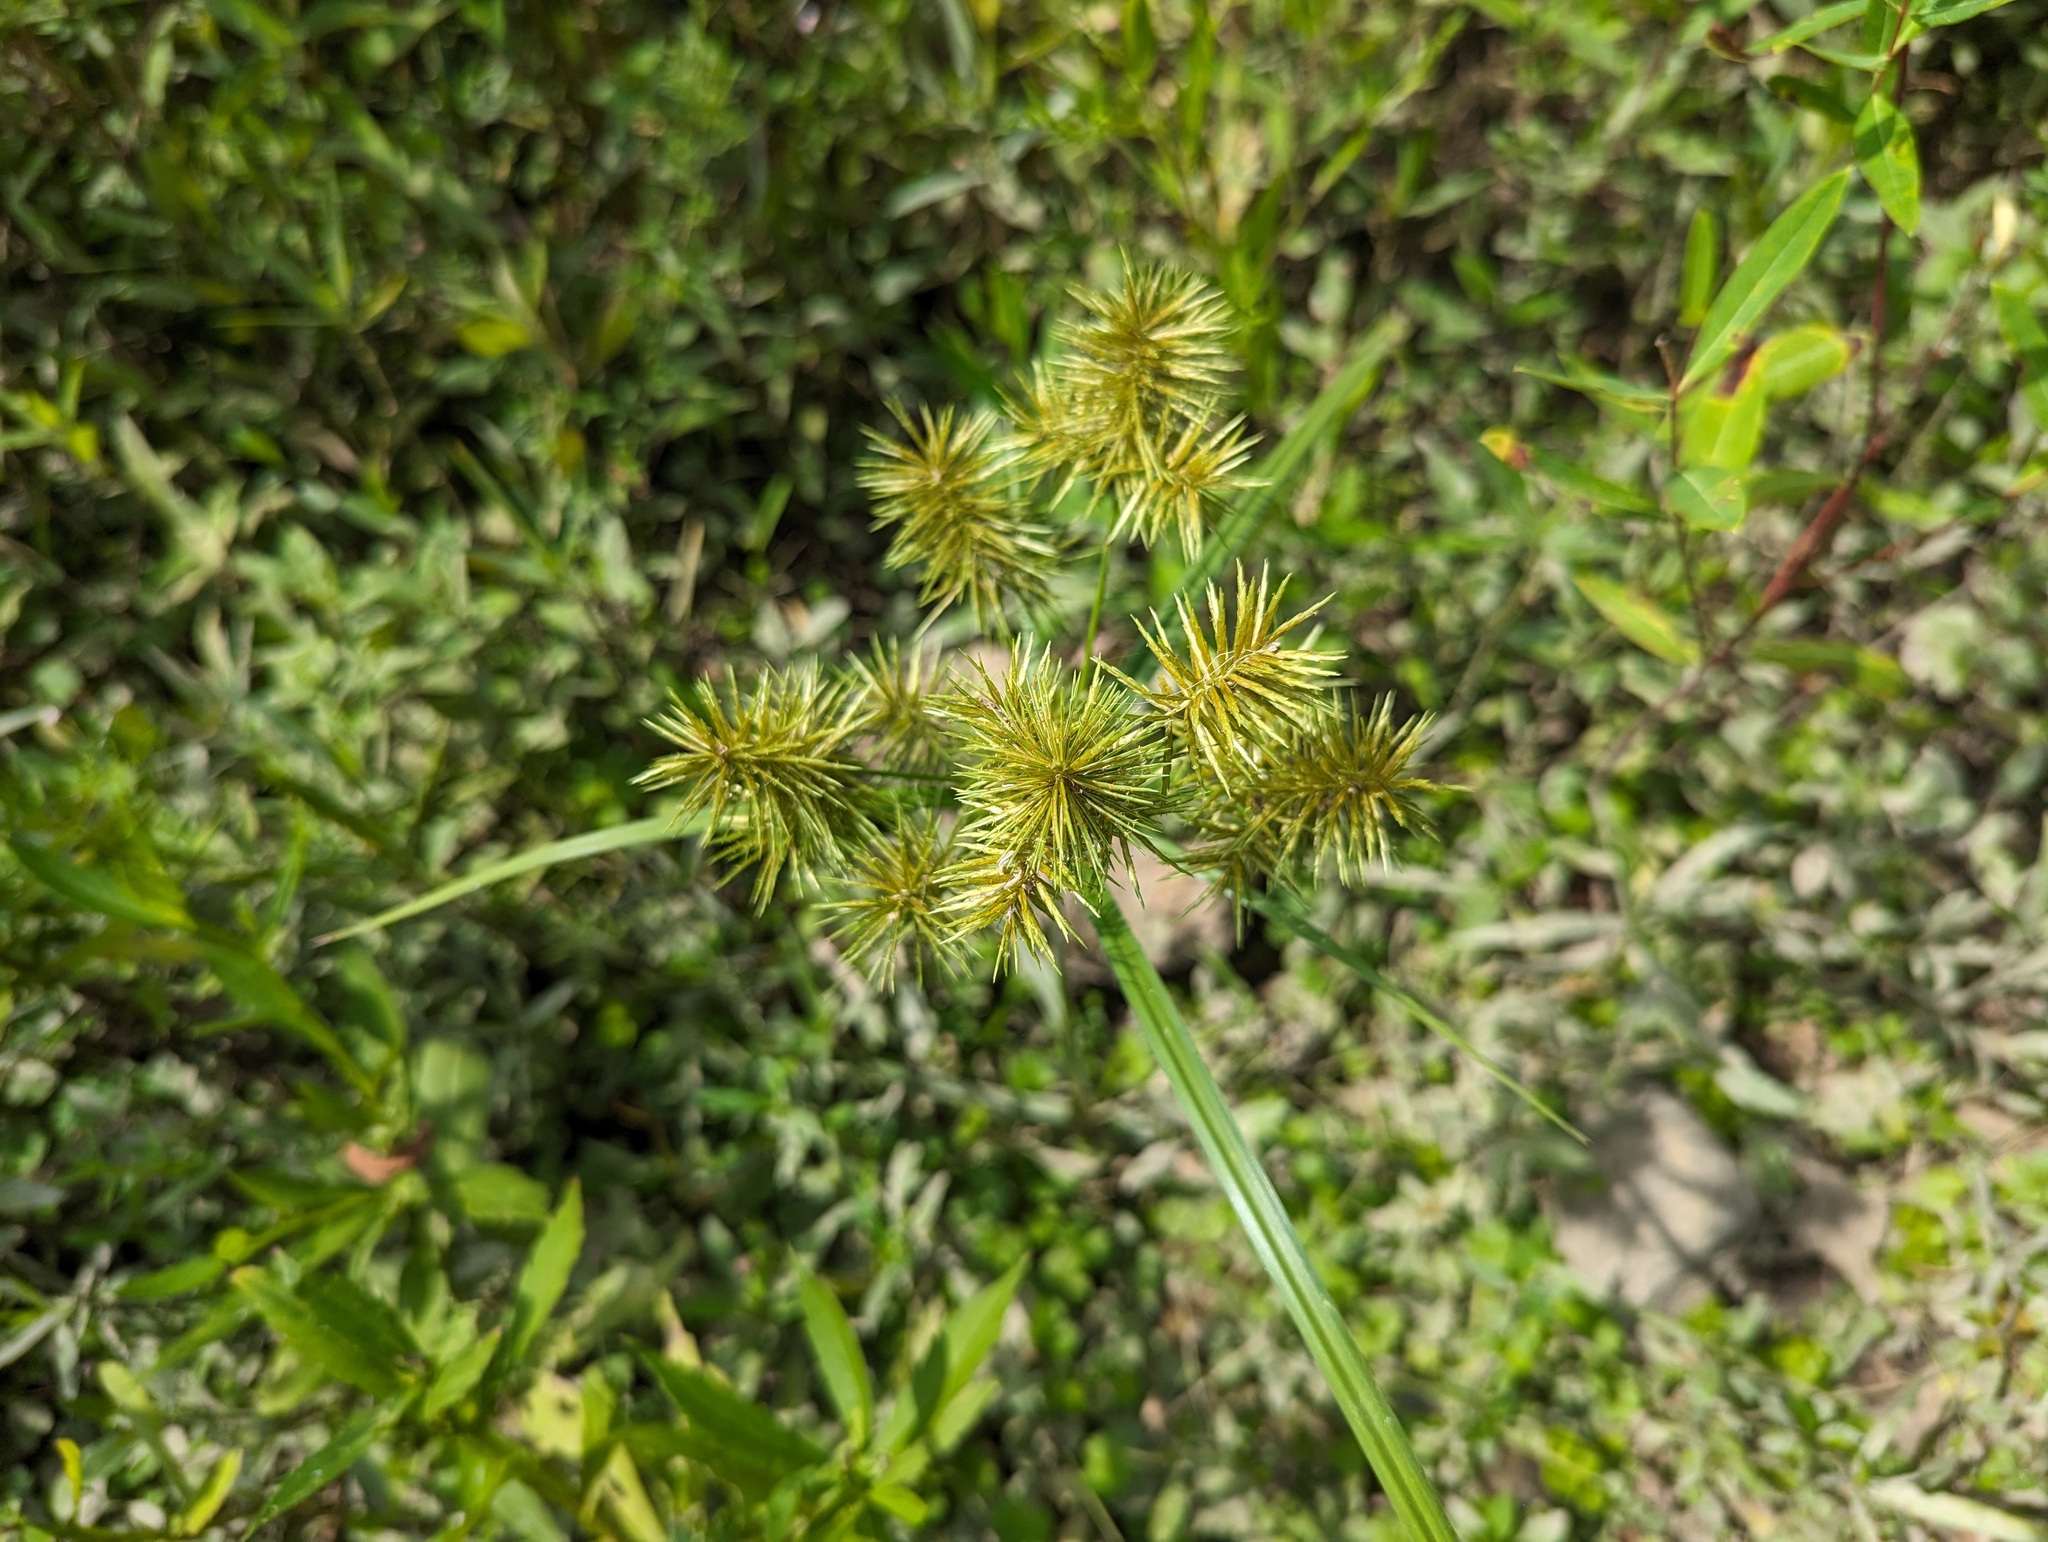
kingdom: Plantae
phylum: Tracheophyta
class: Liliopsida
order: Poales
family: Cyperaceae
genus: Cyperus
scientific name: Cyperus strigosus
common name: False nutsedge
